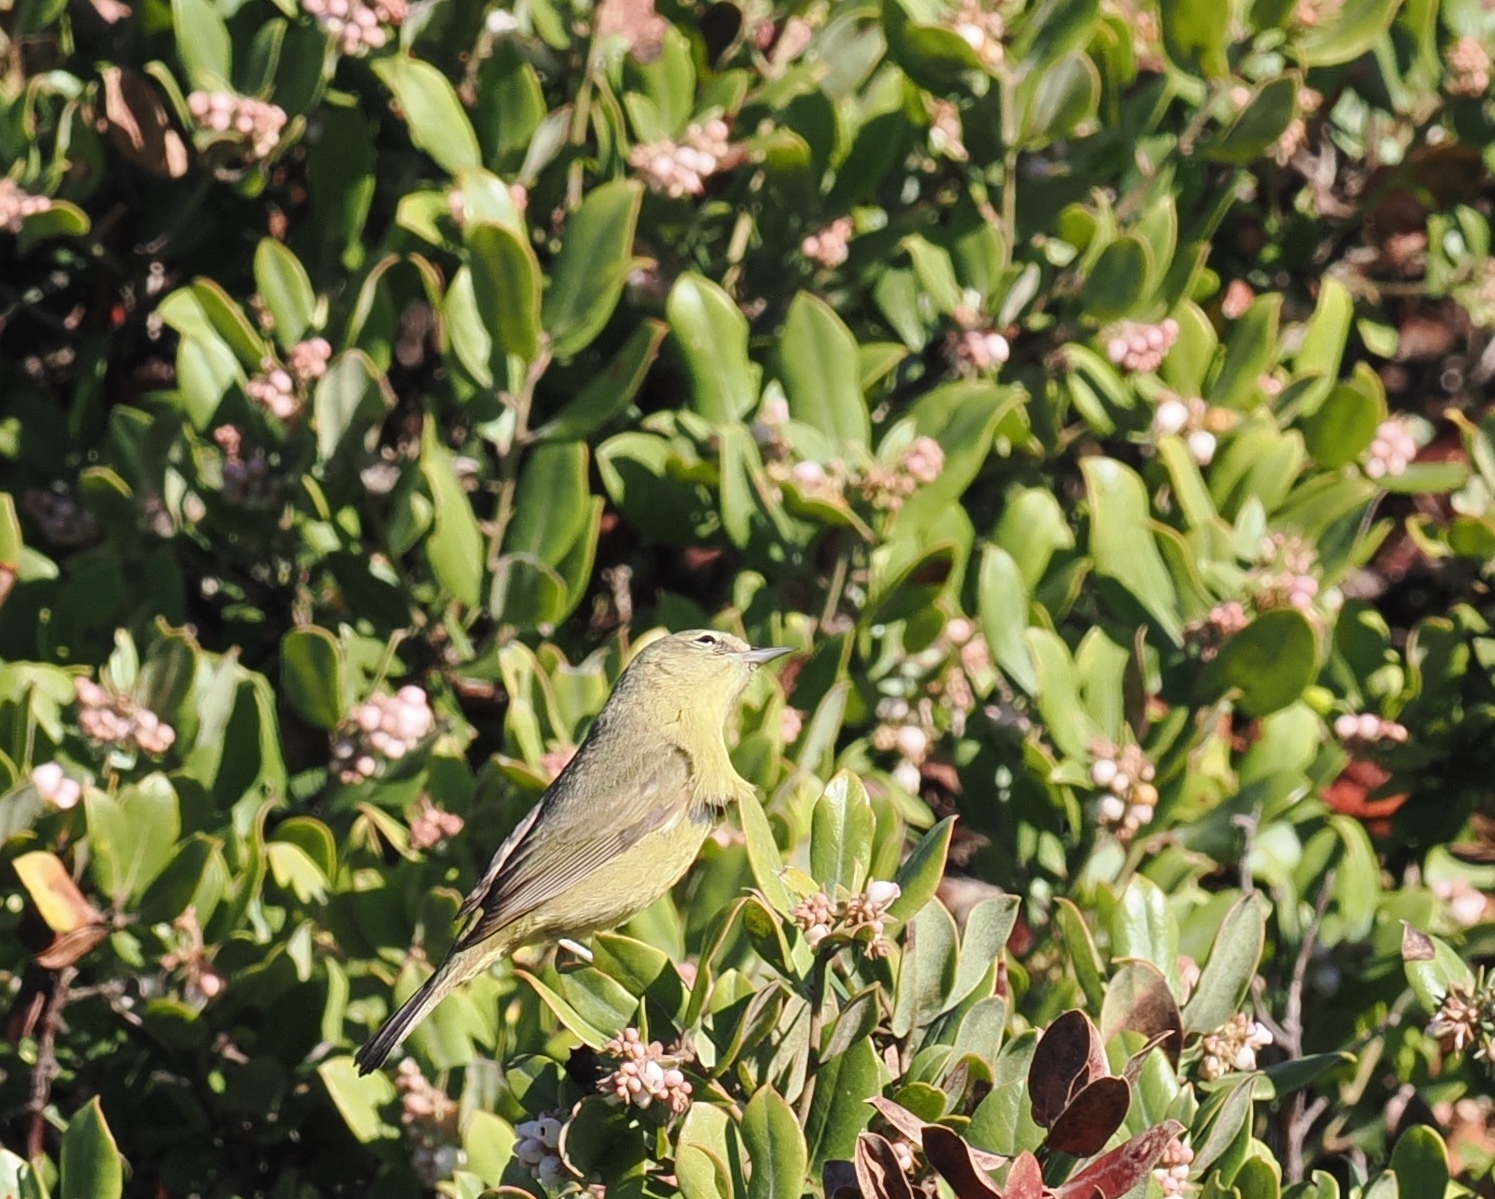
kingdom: Animalia
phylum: Chordata
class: Aves
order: Passeriformes
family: Parulidae
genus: Leiothlypis
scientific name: Leiothlypis celata
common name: Orange-crowned warbler
